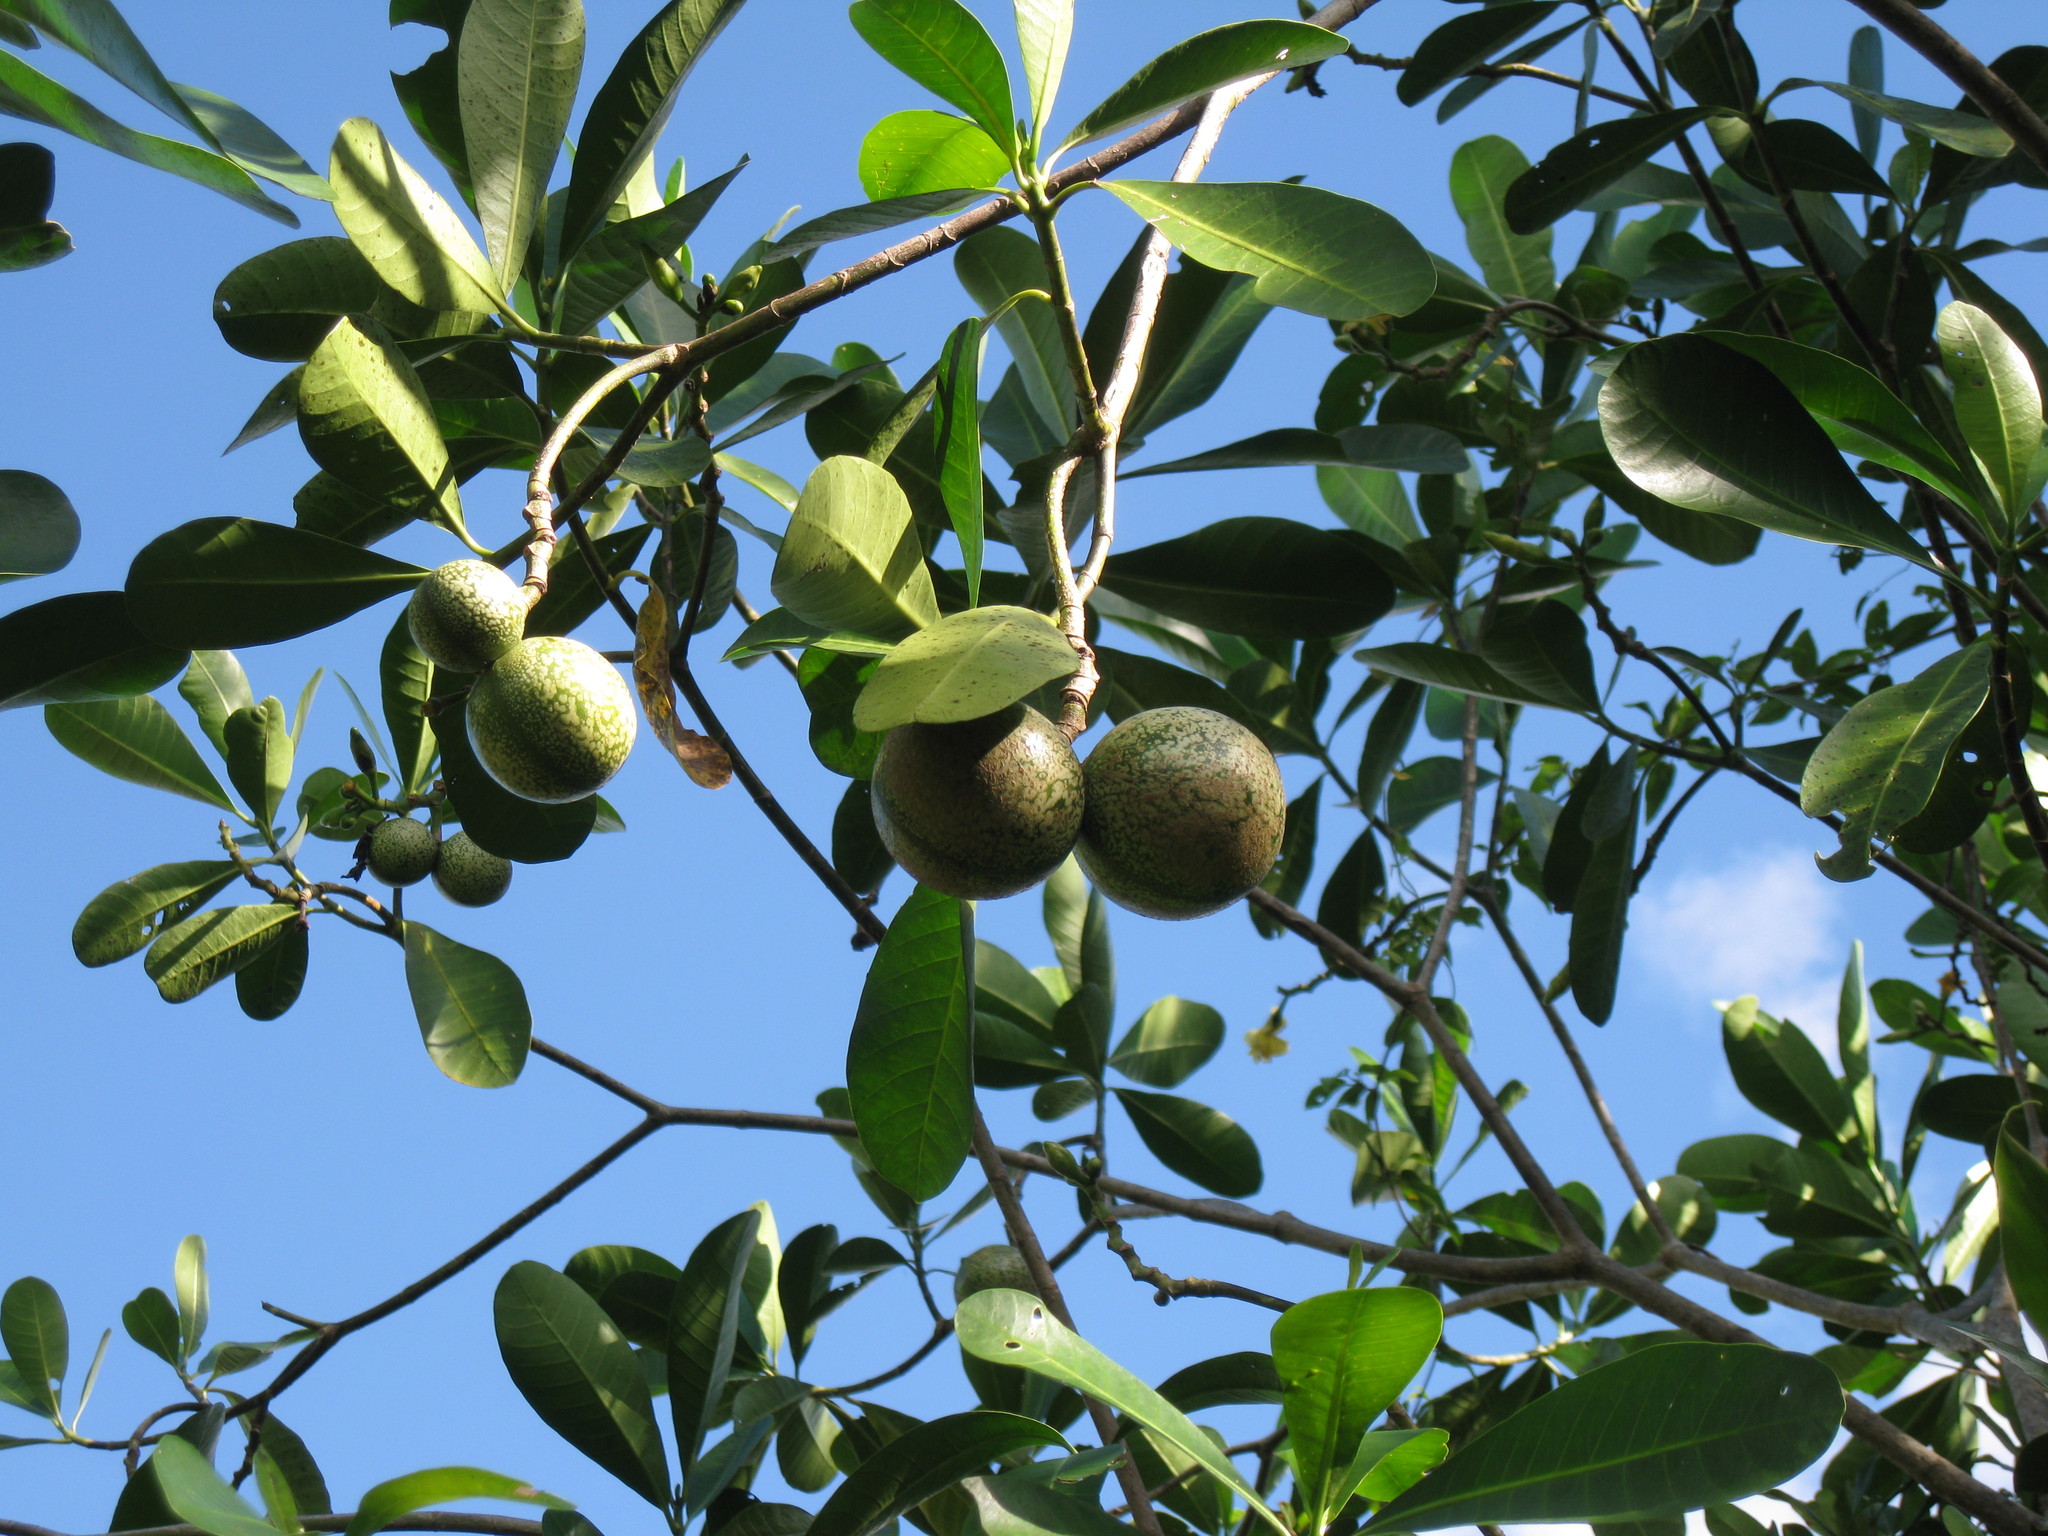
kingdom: Plantae
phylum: Tracheophyta
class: Magnoliopsida
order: Gentianales
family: Apocynaceae
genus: Voacanga
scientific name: Voacanga thouarsii
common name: Wild frangipani
